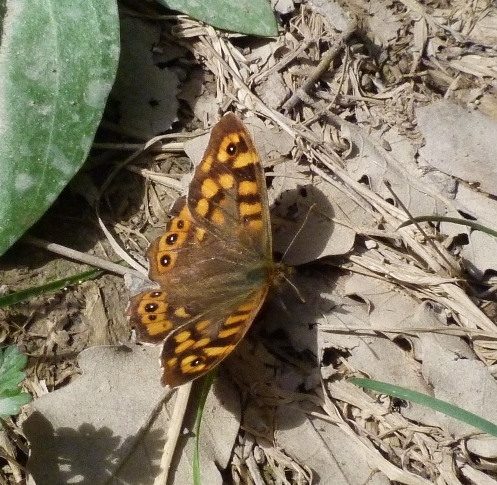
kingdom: Animalia
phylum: Arthropoda
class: Insecta
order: Lepidoptera
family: Nymphalidae
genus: Pararge
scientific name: Pararge aegeria
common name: Speckled wood
